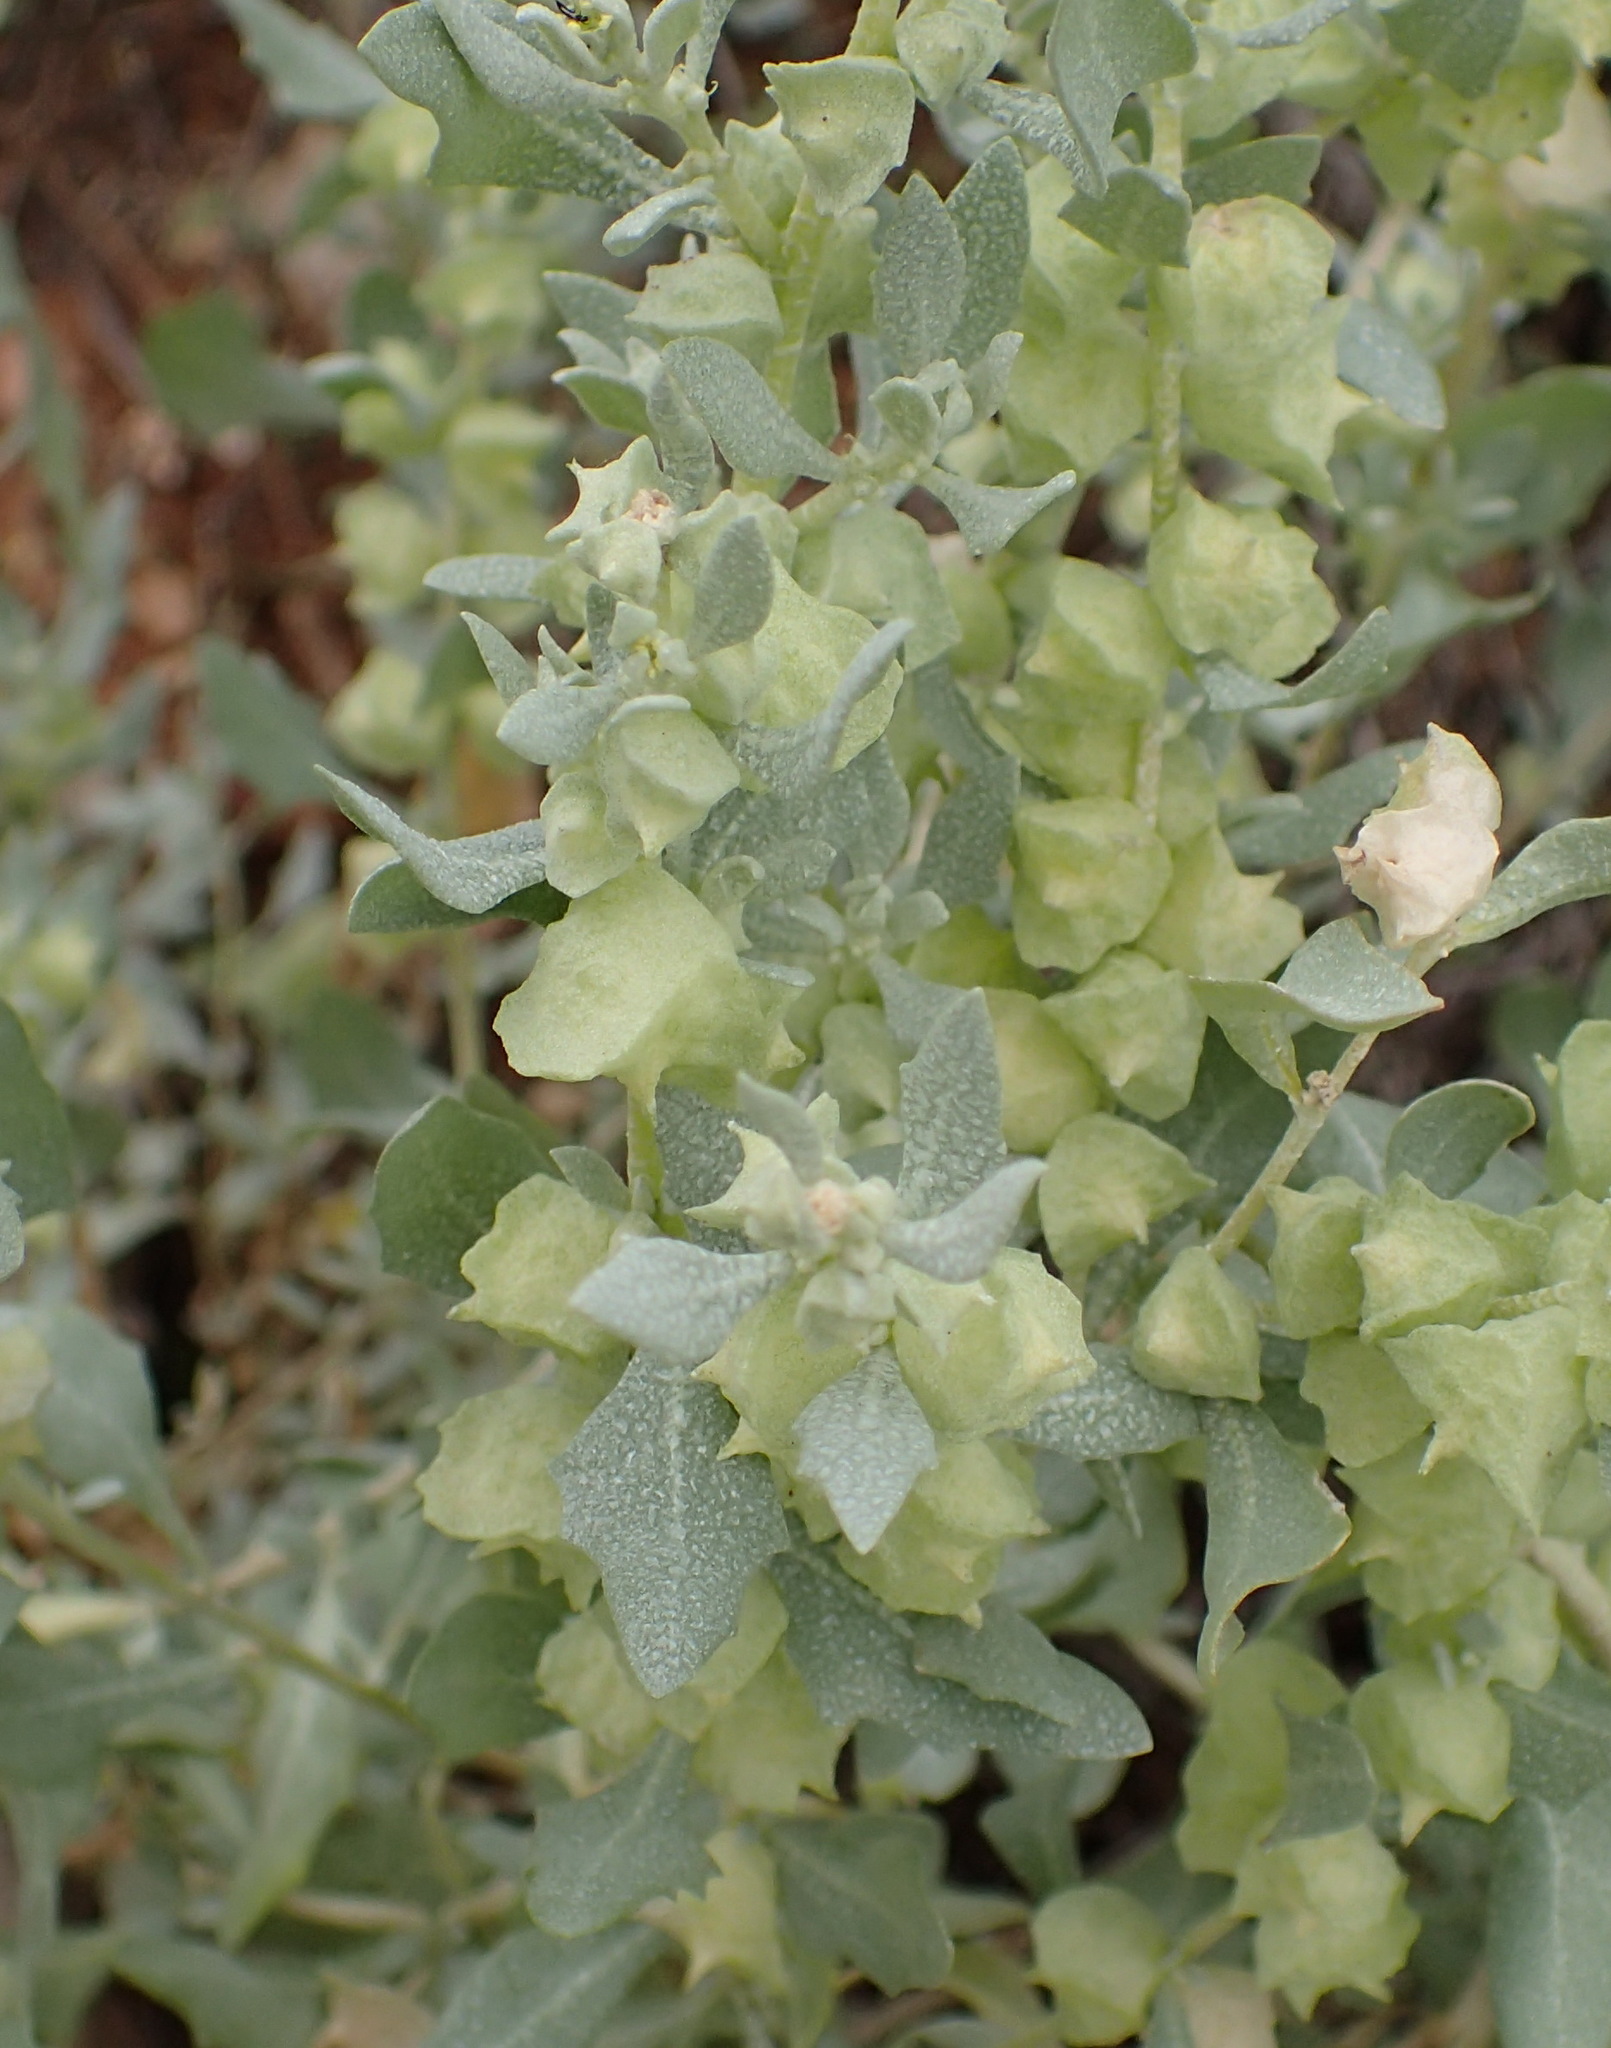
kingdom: Plantae
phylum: Tracheophyta
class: Magnoliopsida
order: Caryophyllales
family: Amaranthaceae
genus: Atriplex
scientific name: Atriplex lindleyi
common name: Lindley's saltbush
